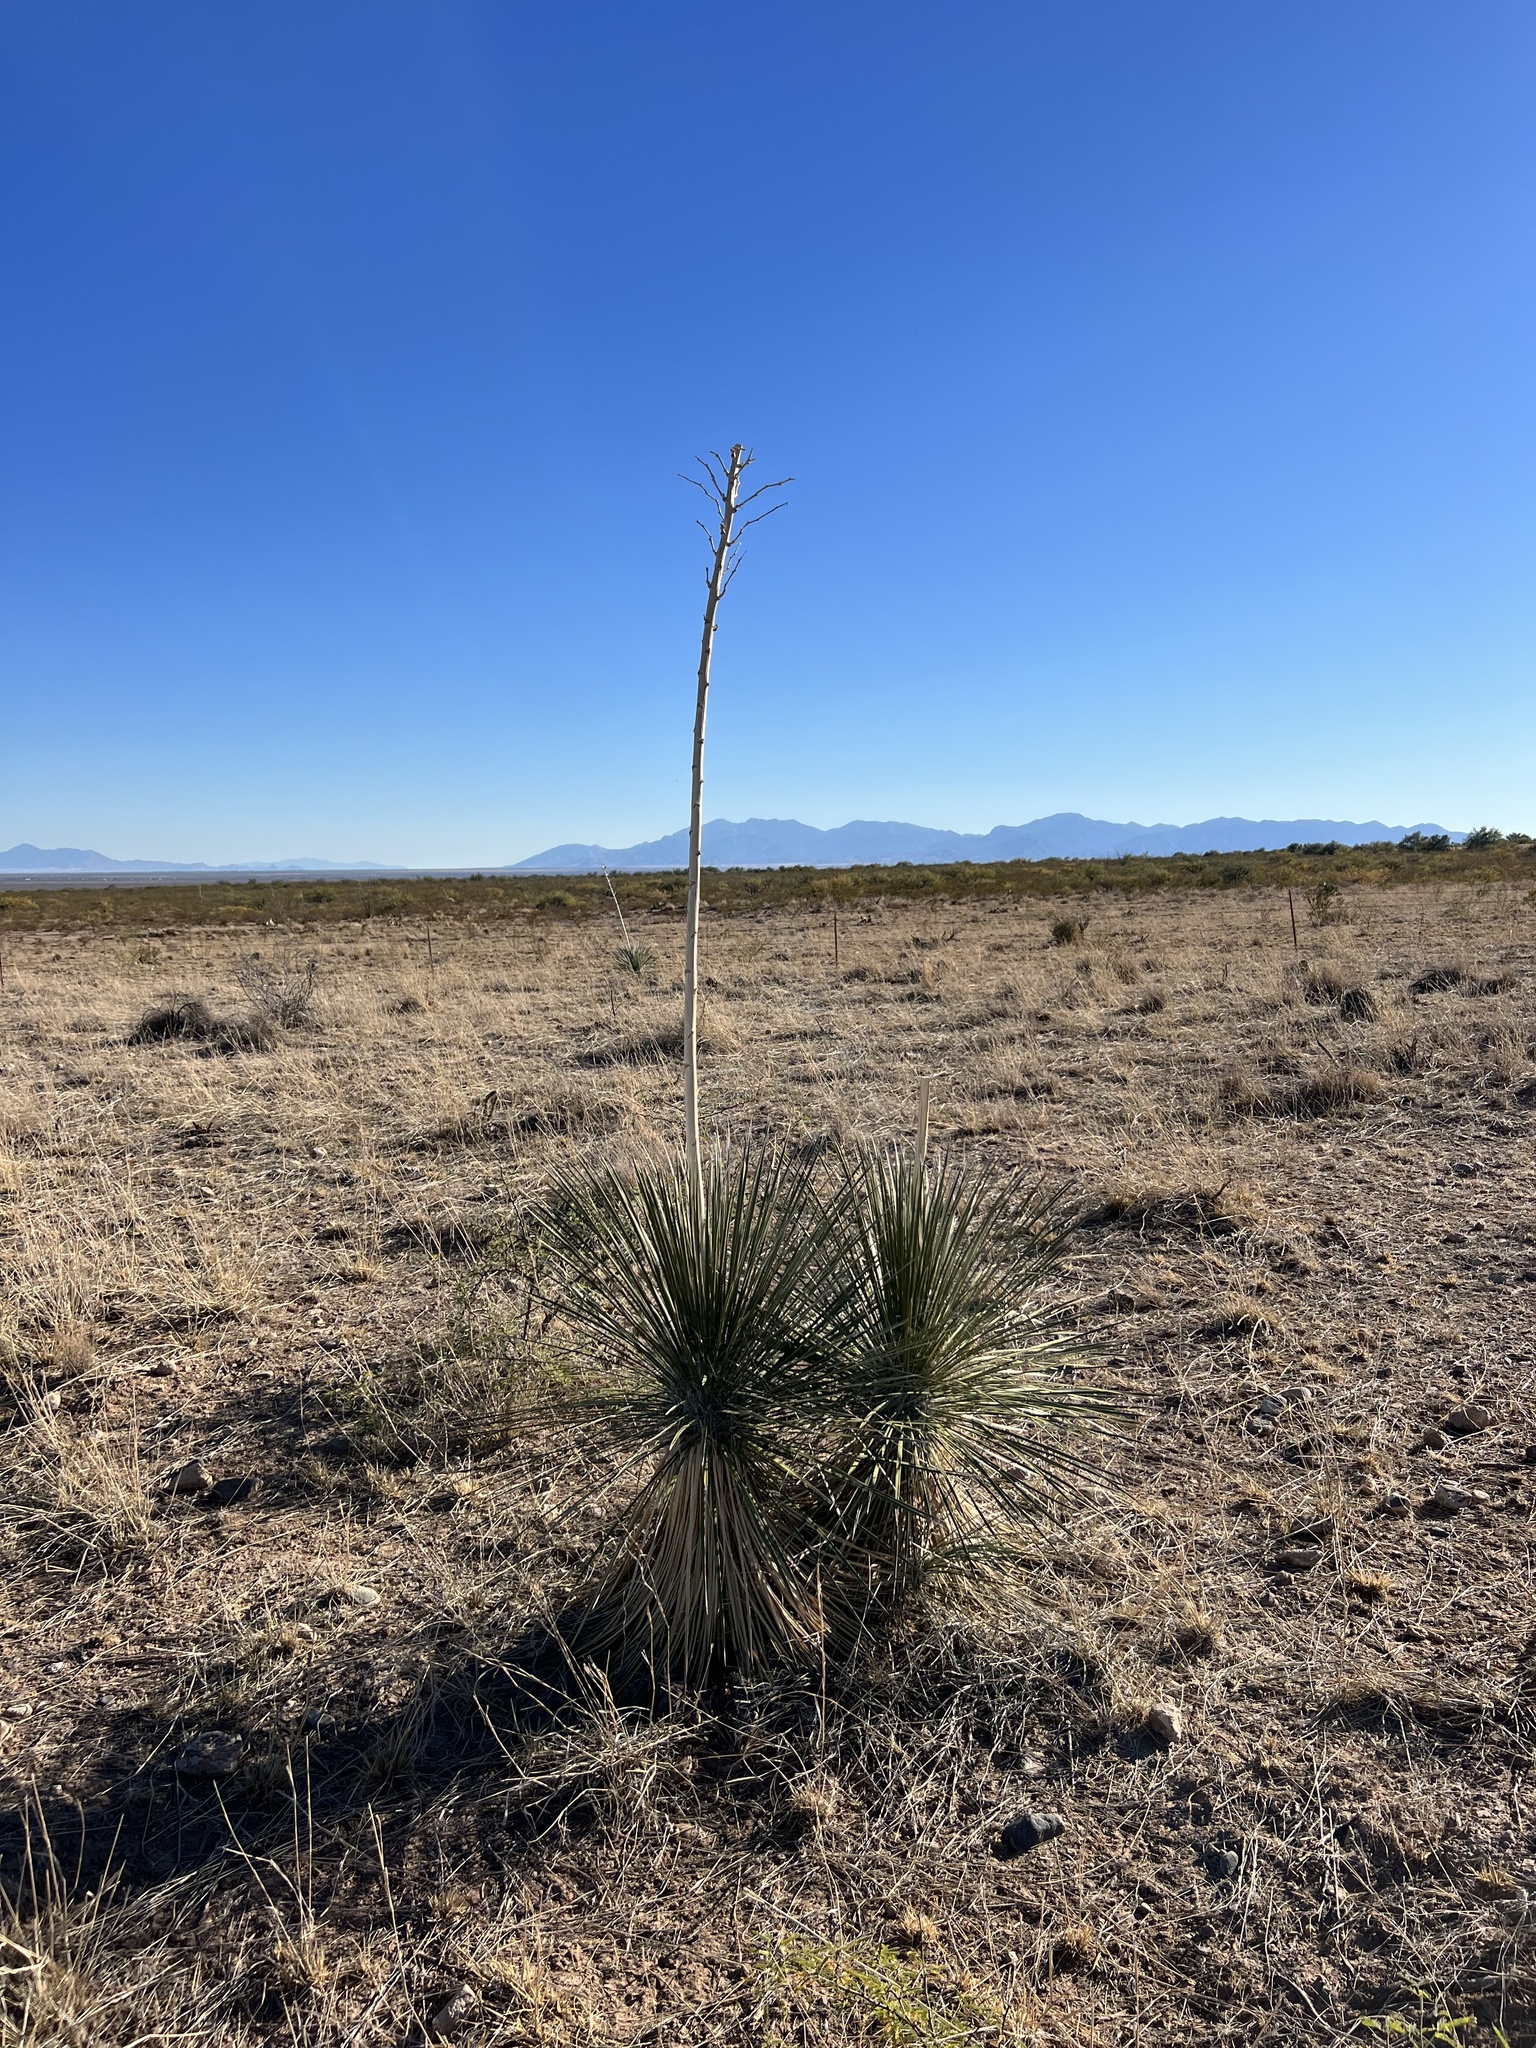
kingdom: Plantae
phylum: Tracheophyta
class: Liliopsida
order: Asparagales
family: Asparagaceae
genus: Yucca
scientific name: Yucca elata
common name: Palmella
